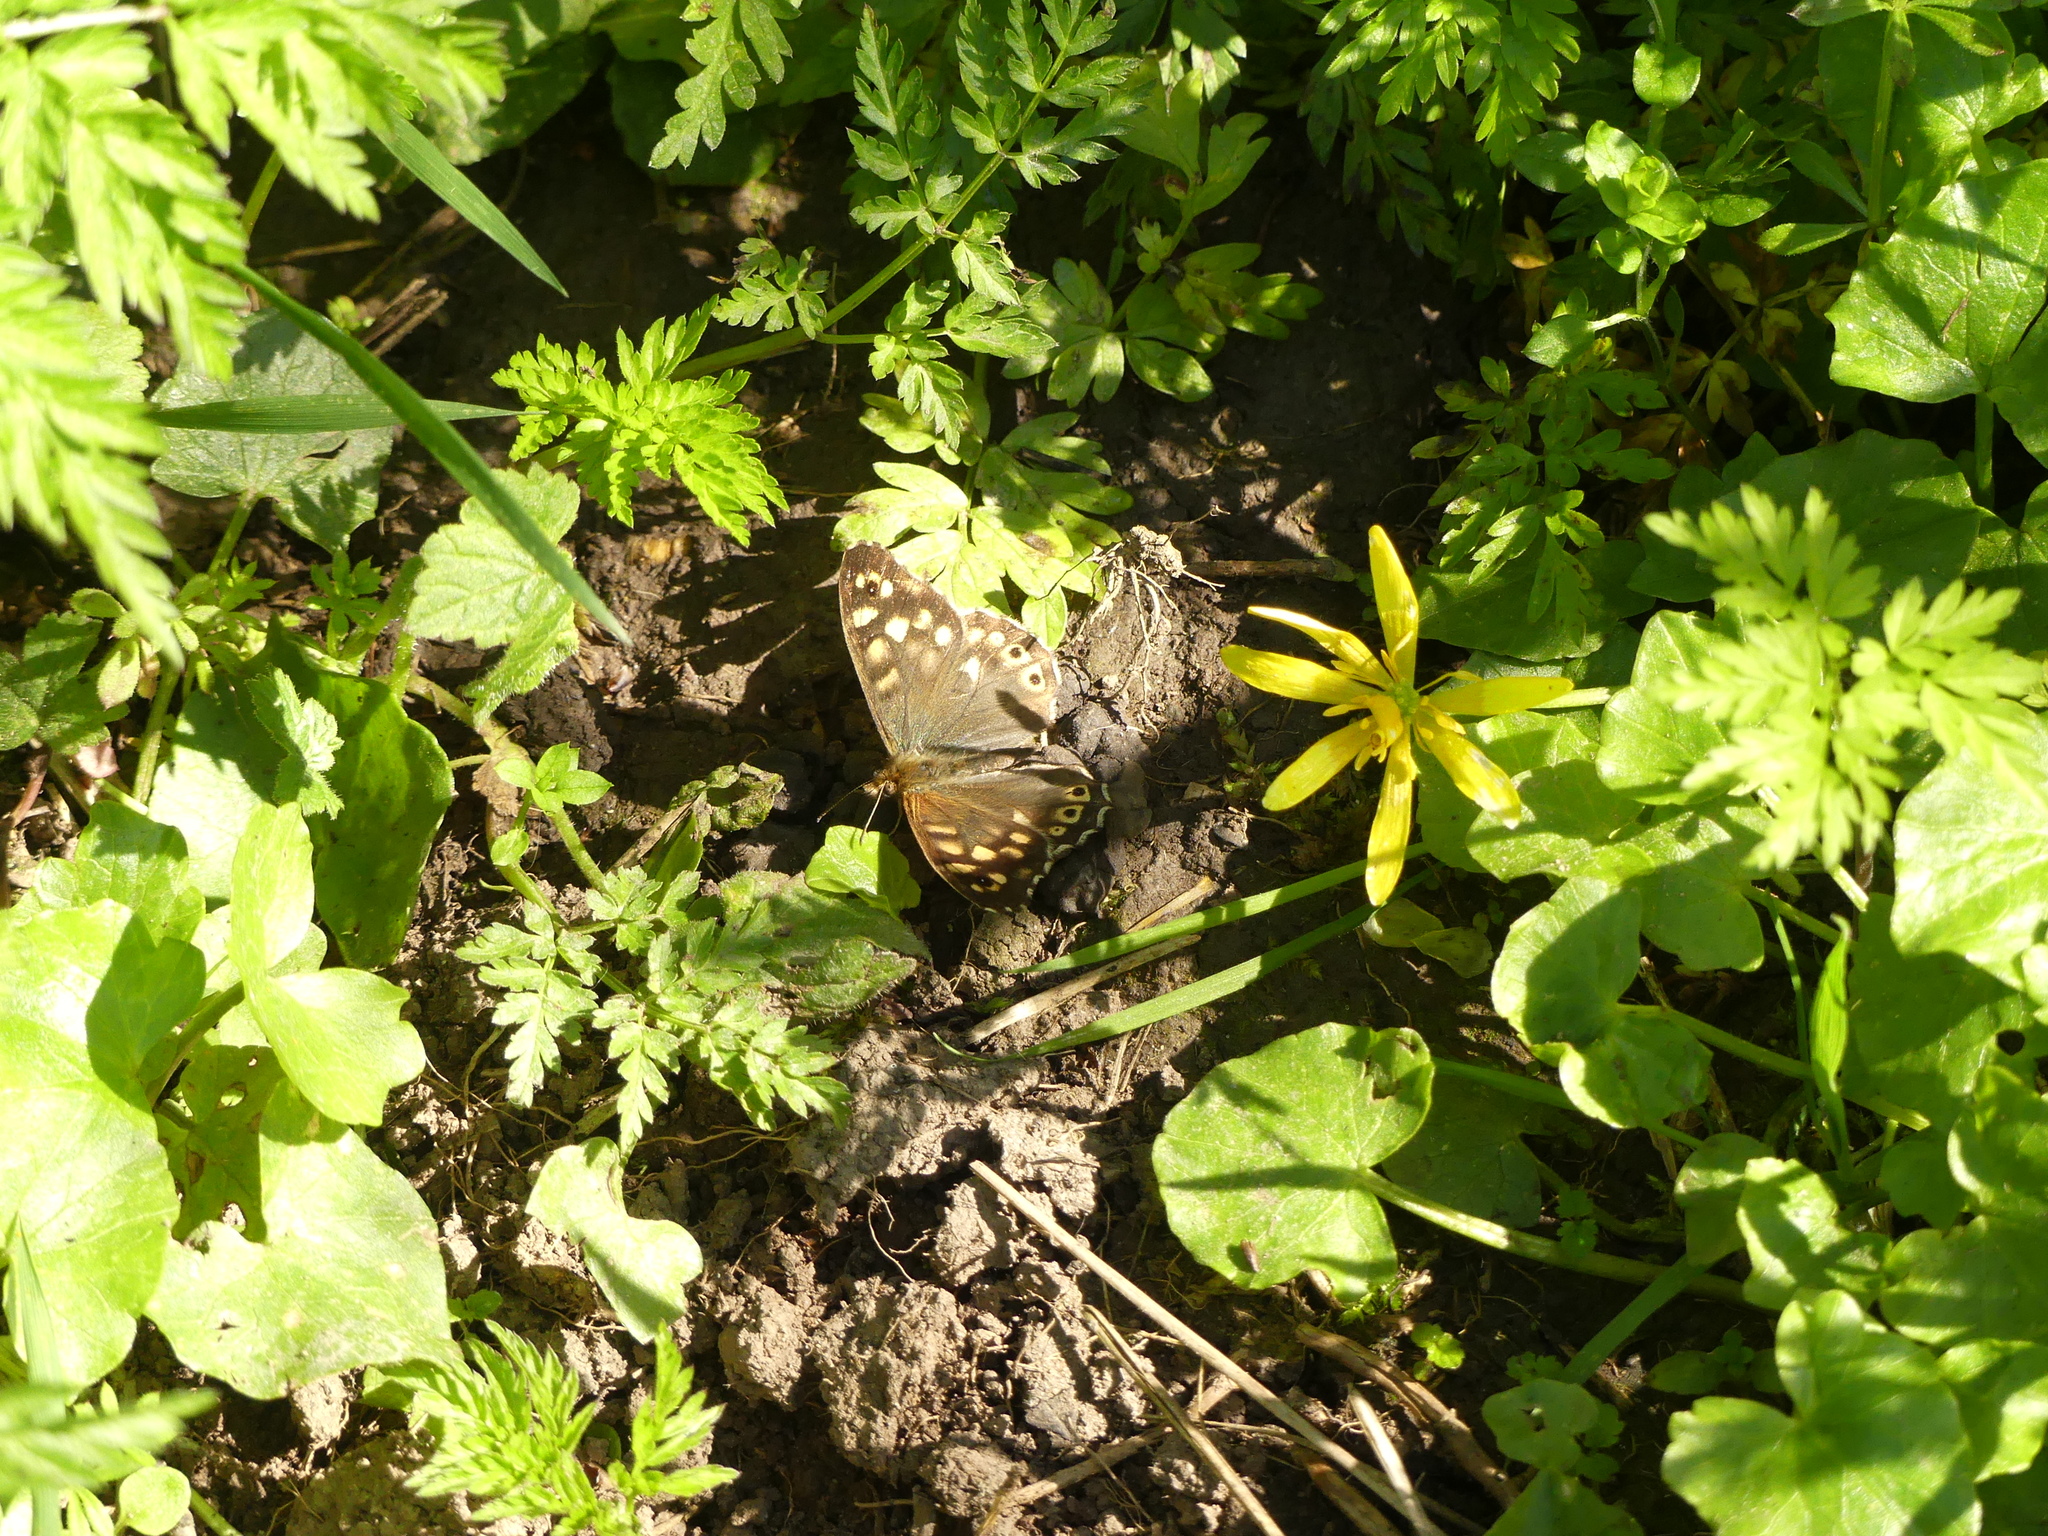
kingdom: Animalia
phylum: Arthropoda
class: Insecta
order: Lepidoptera
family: Nymphalidae
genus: Pararge
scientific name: Pararge aegeria
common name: Speckled wood
